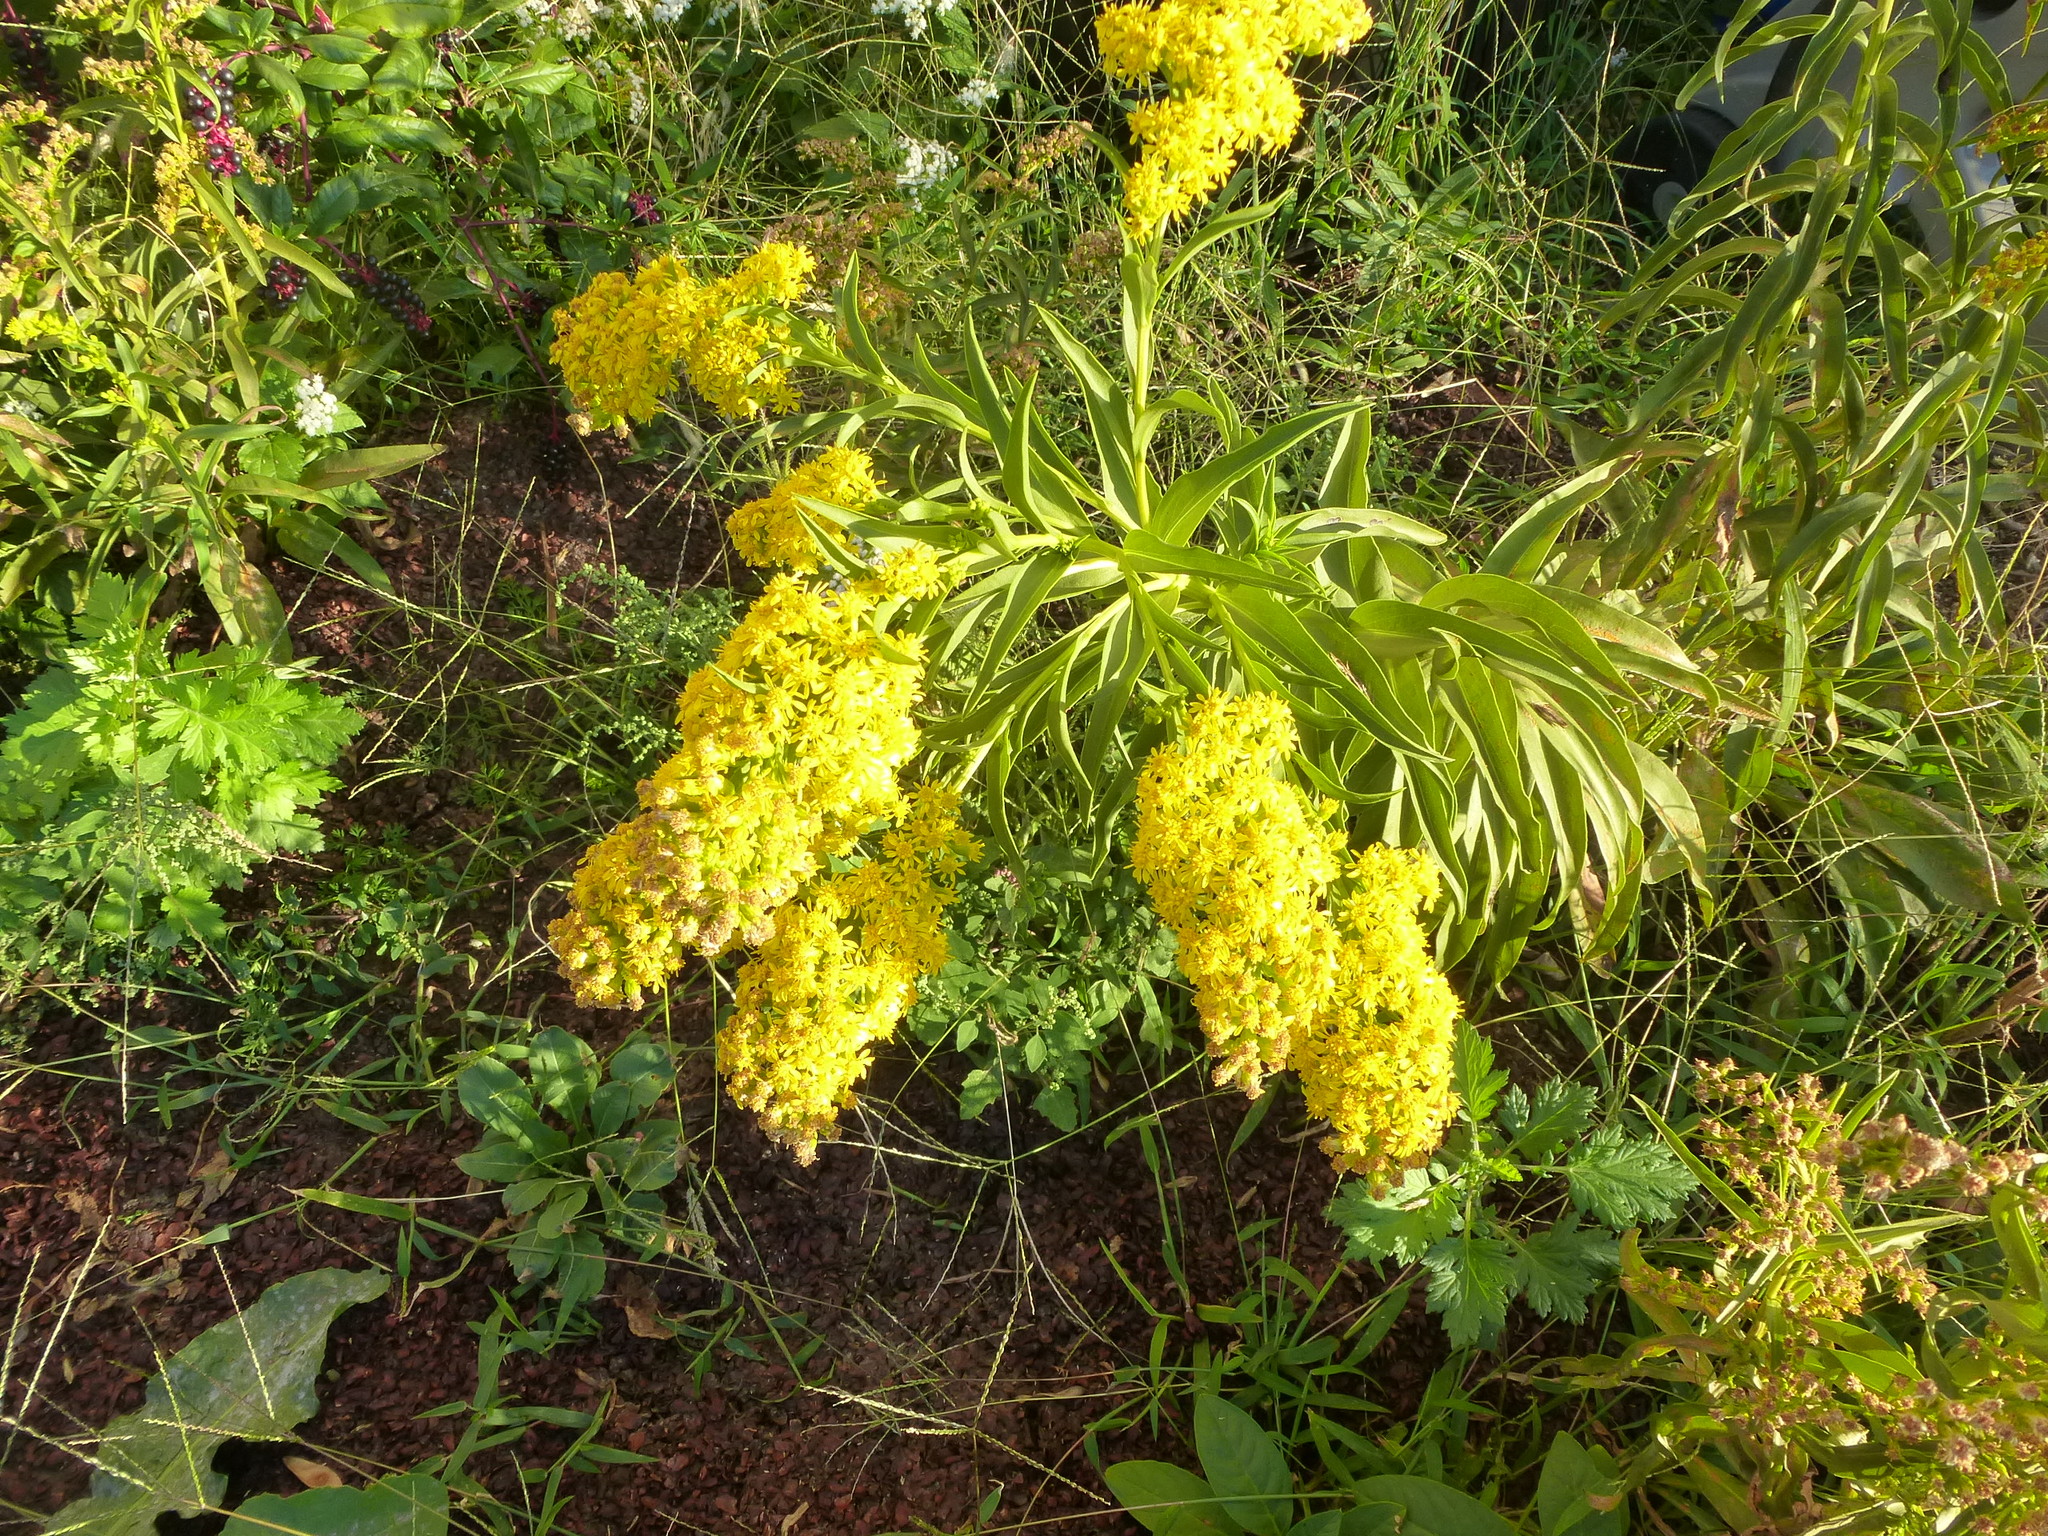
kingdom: Plantae
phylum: Tracheophyta
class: Magnoliopsida
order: Asterales
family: Asteraceae
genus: Solidago
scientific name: Solidago sempervirens
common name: Salt-marsh goldenrod
